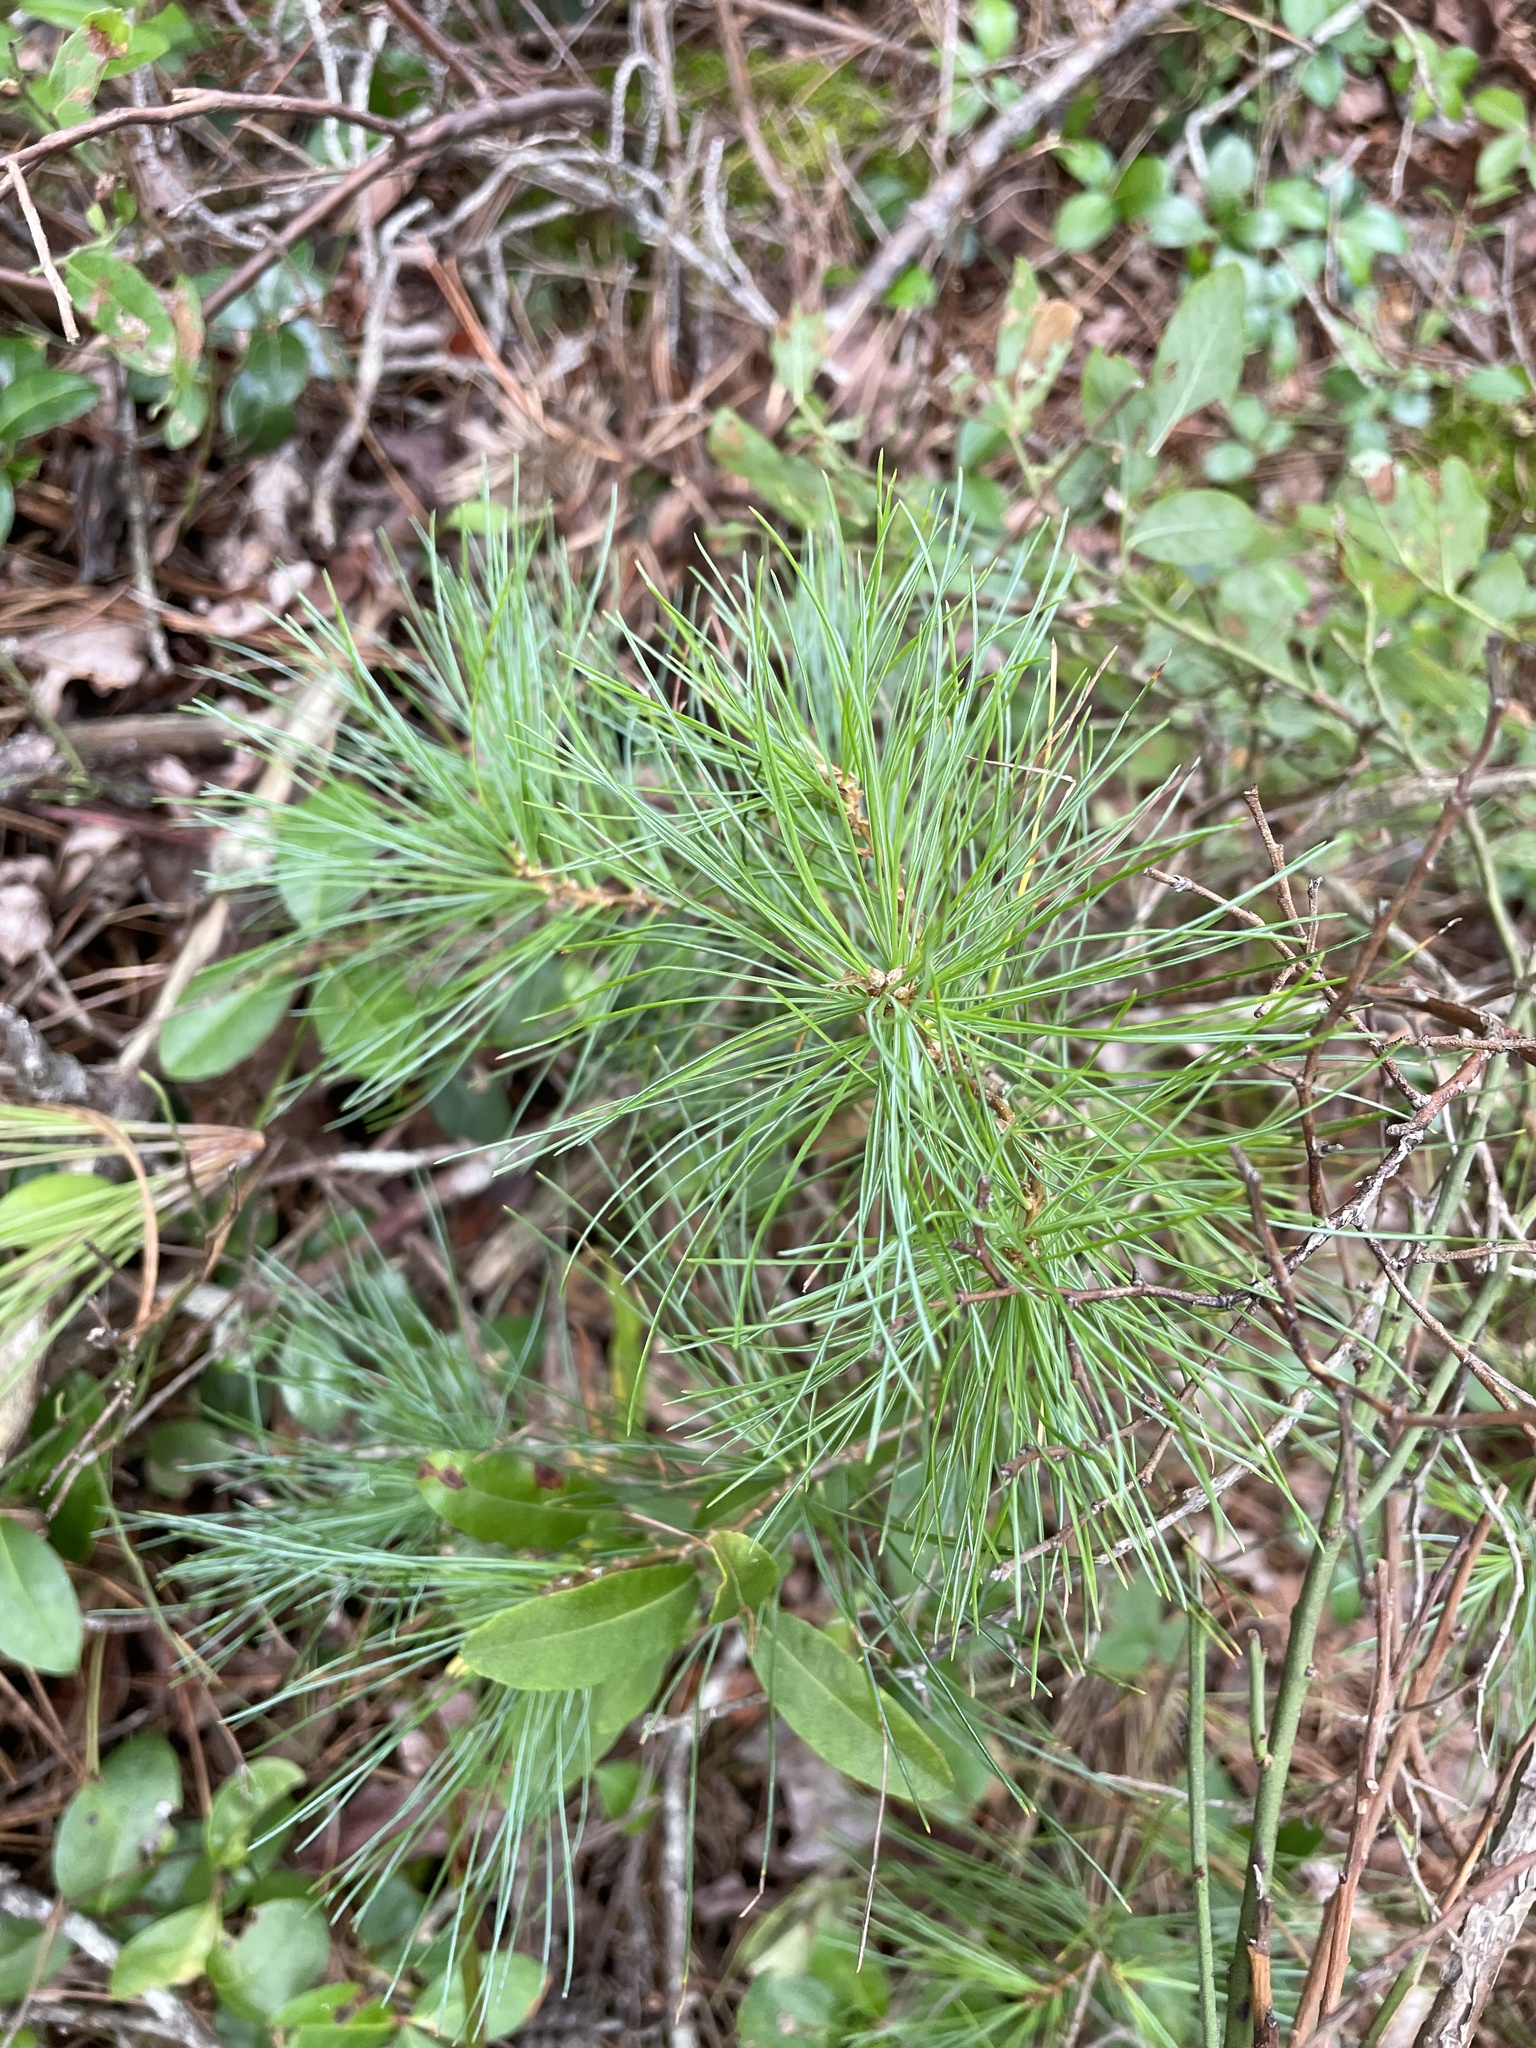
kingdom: Plantae
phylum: Tracheophyta
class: Pinopsida
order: Pinales
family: Pinaceae
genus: Pinus
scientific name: Pinus strobus
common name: Weymouth pine
